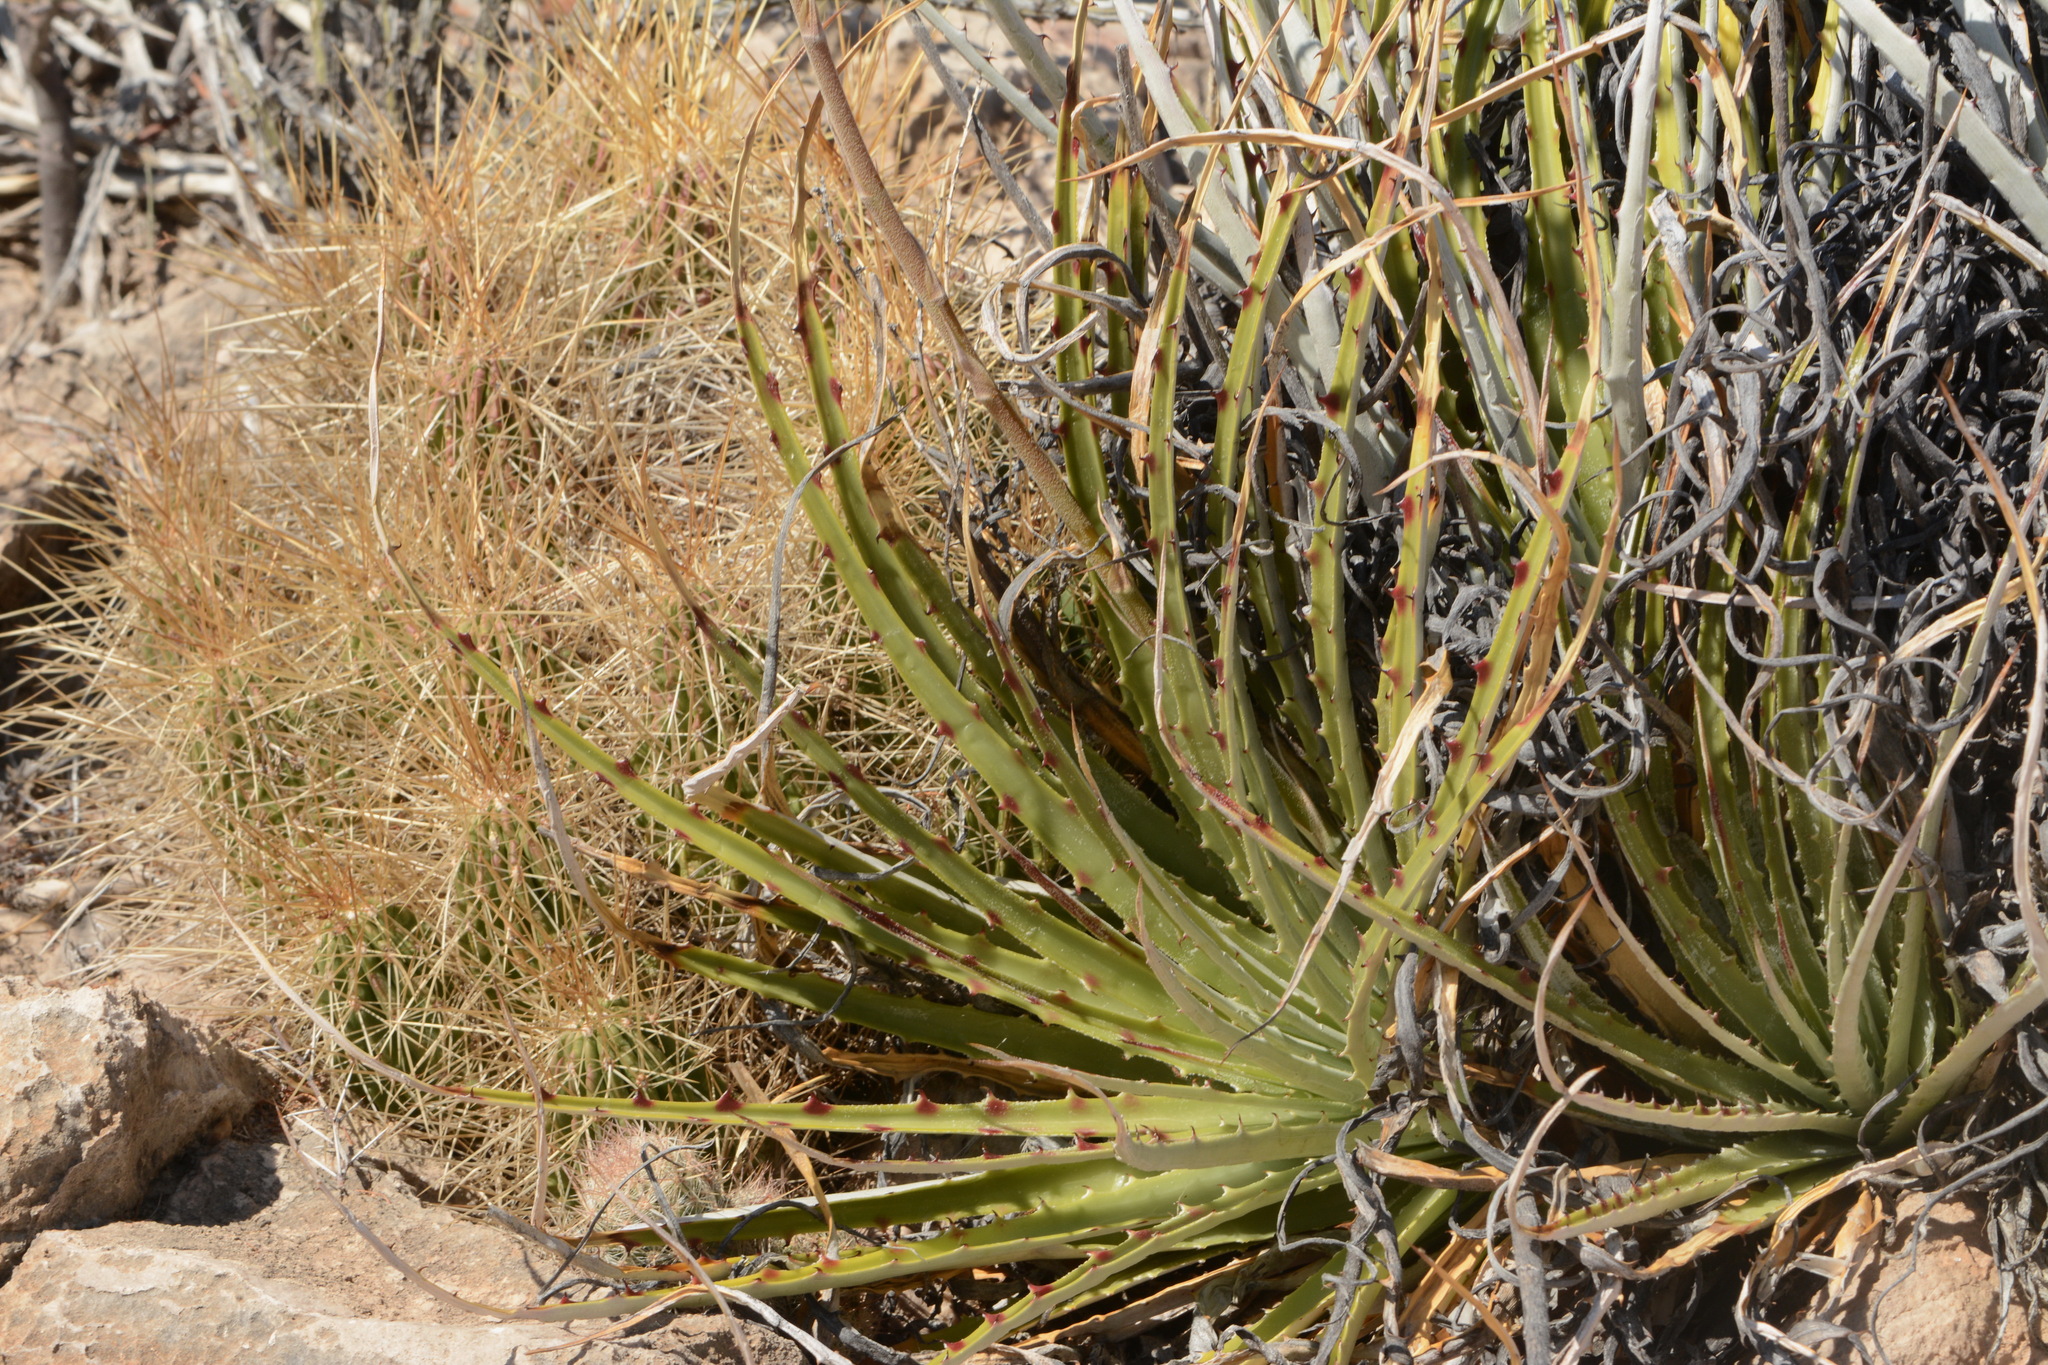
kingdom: Plantae
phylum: Tracheophyta
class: Liliopsida
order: Poales
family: Bromeliaceae
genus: Hechtia
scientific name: Hechtia texensis
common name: False agave
